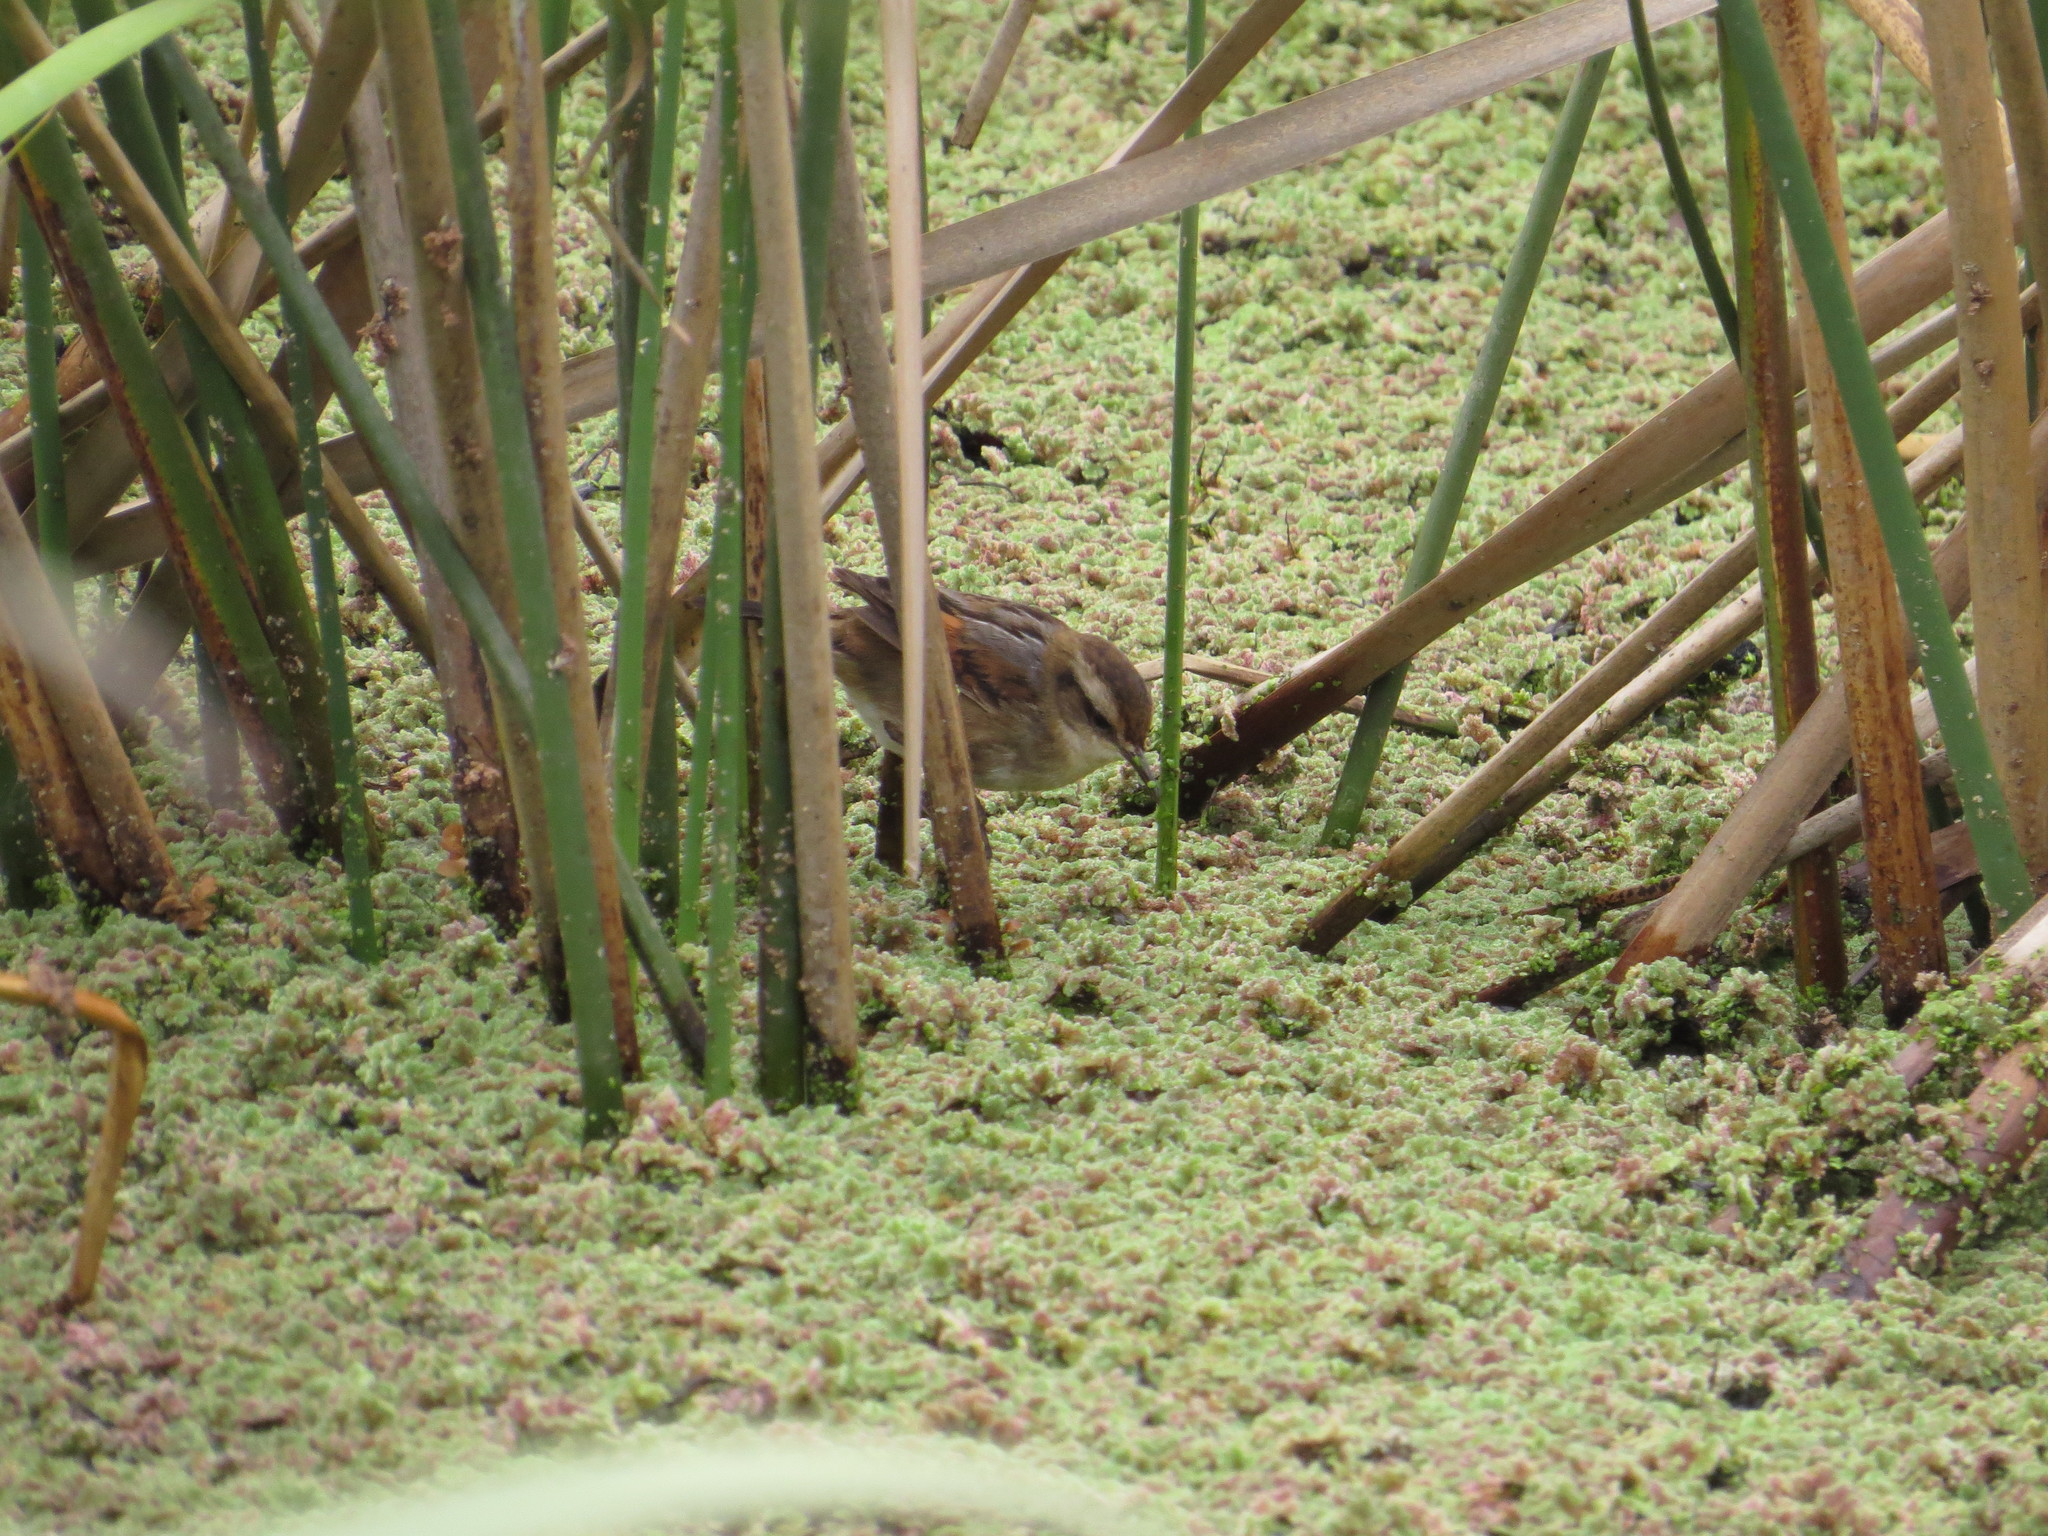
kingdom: Animalia
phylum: Chordata
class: Aves
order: Passeriformes
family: Furnariidae
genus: Phleocryptes
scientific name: Phleocryptes melanops
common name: Wren-like rushbird
